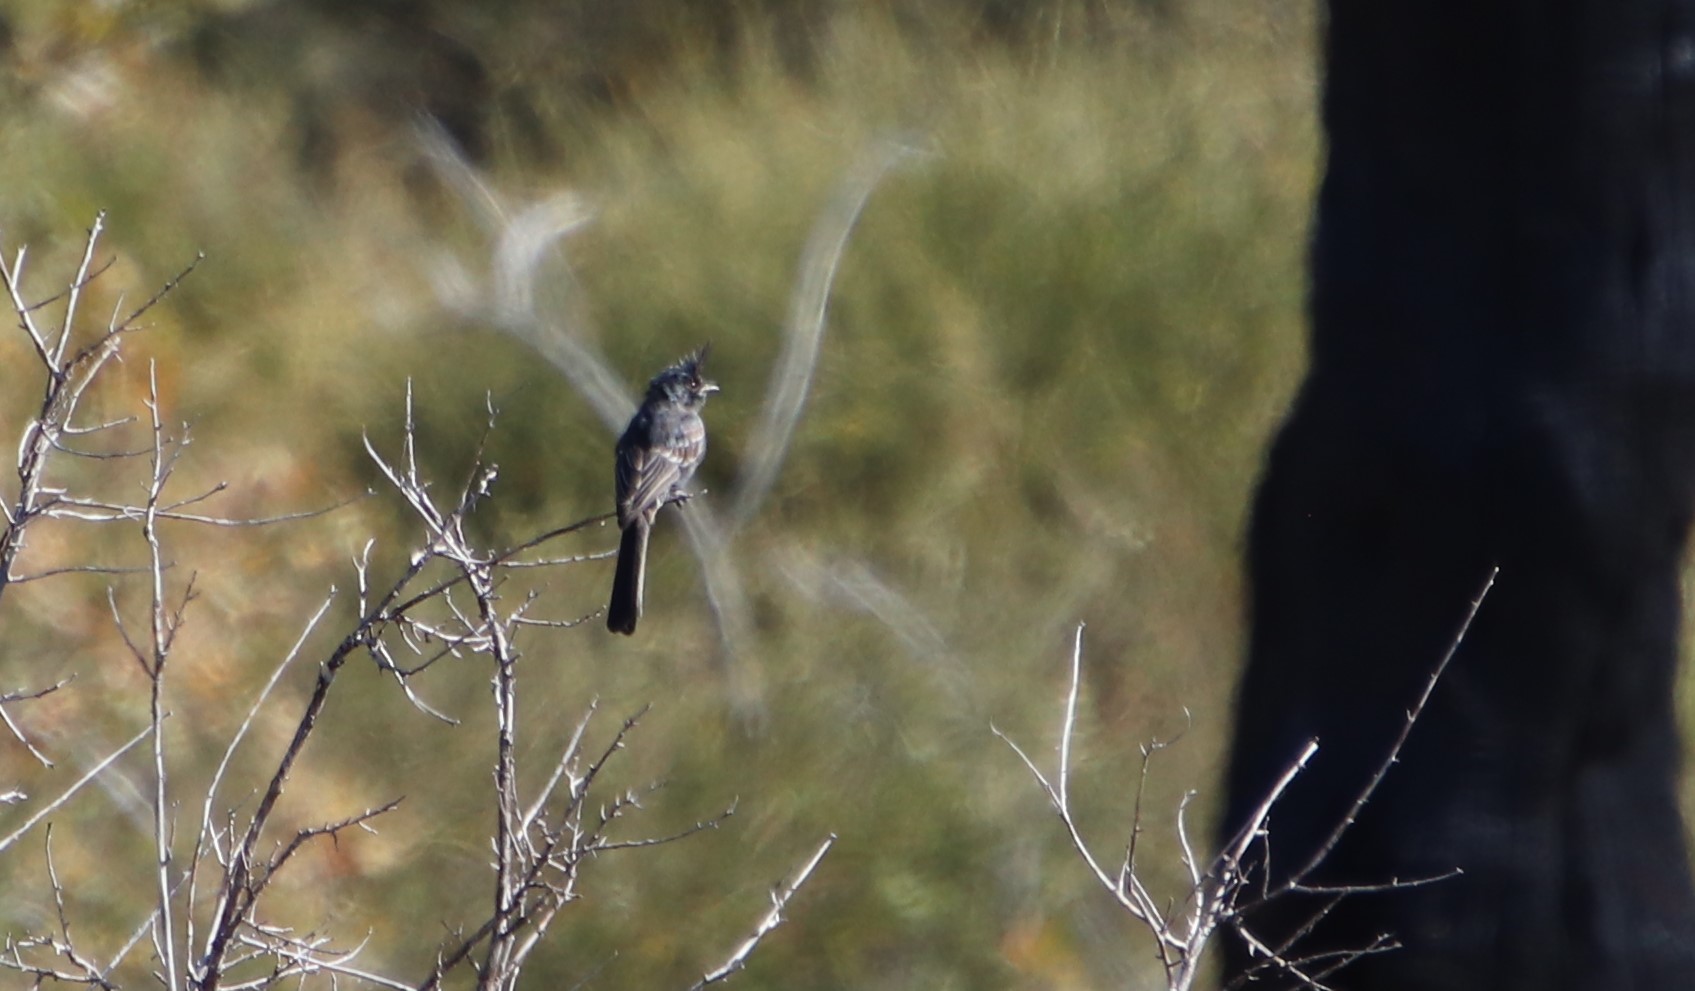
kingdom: Animalia
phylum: Chordata
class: Aves
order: Passeriformes
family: Ptilogonatidae
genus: Phainopepla
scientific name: Phainopepla nitens
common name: Phainopepla
